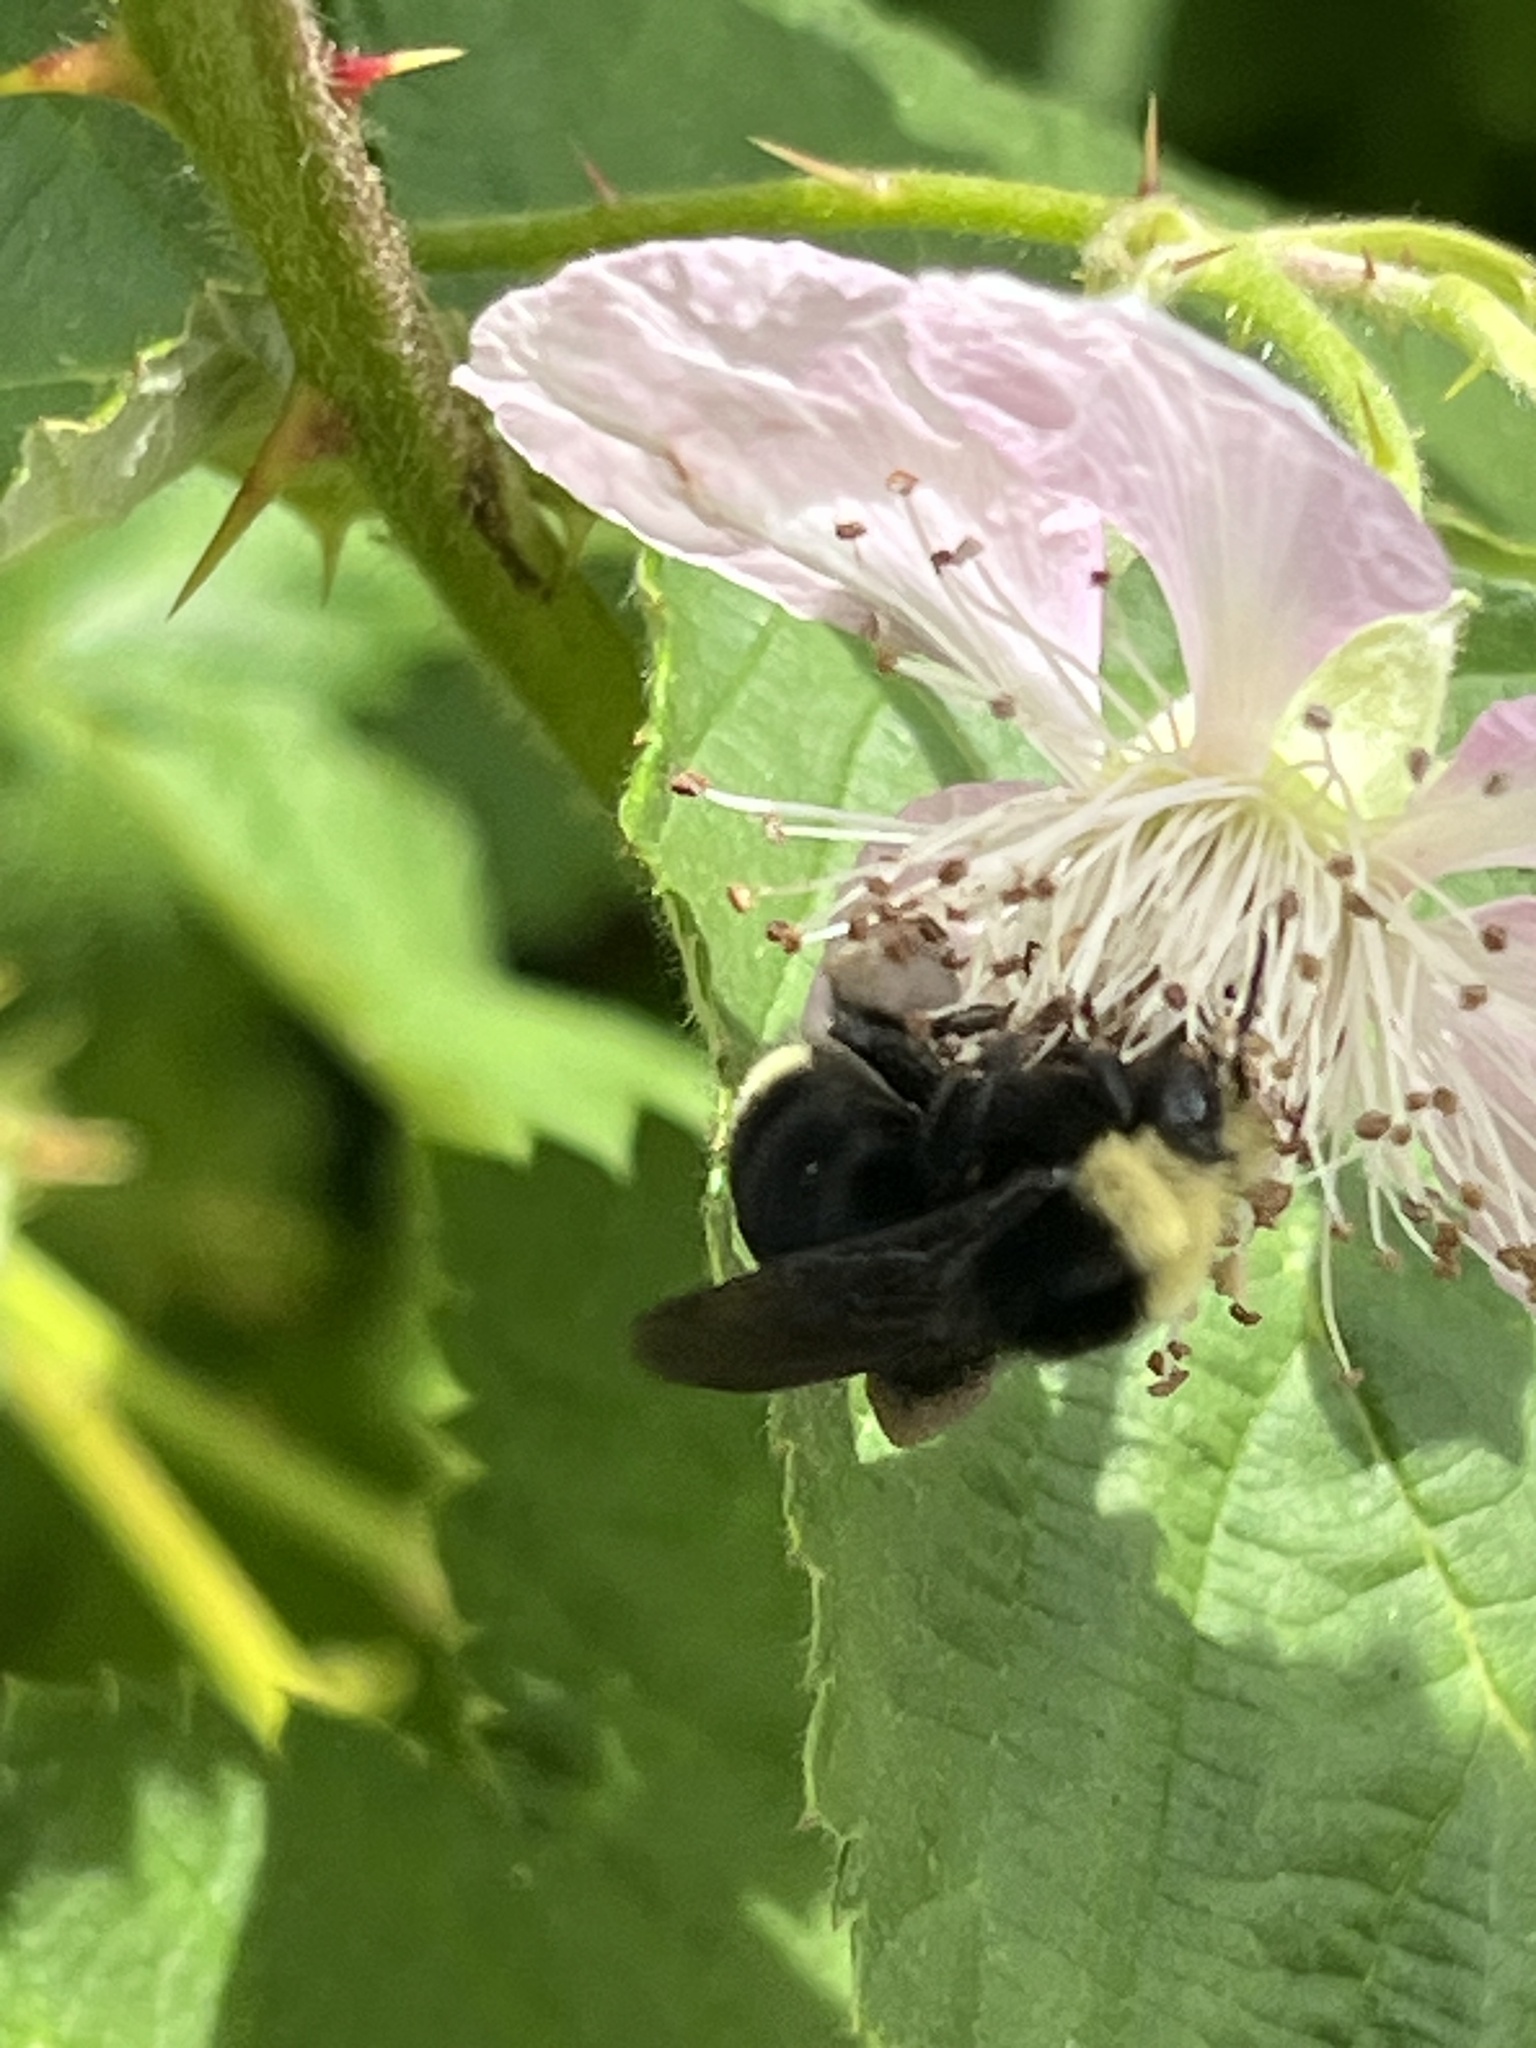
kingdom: Animalia
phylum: Arthropoda
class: Insecta
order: Hymenoptera
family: Apidae
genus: Bombus
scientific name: Bombus vosnesenskii
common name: Vosnesensky bumble bee
